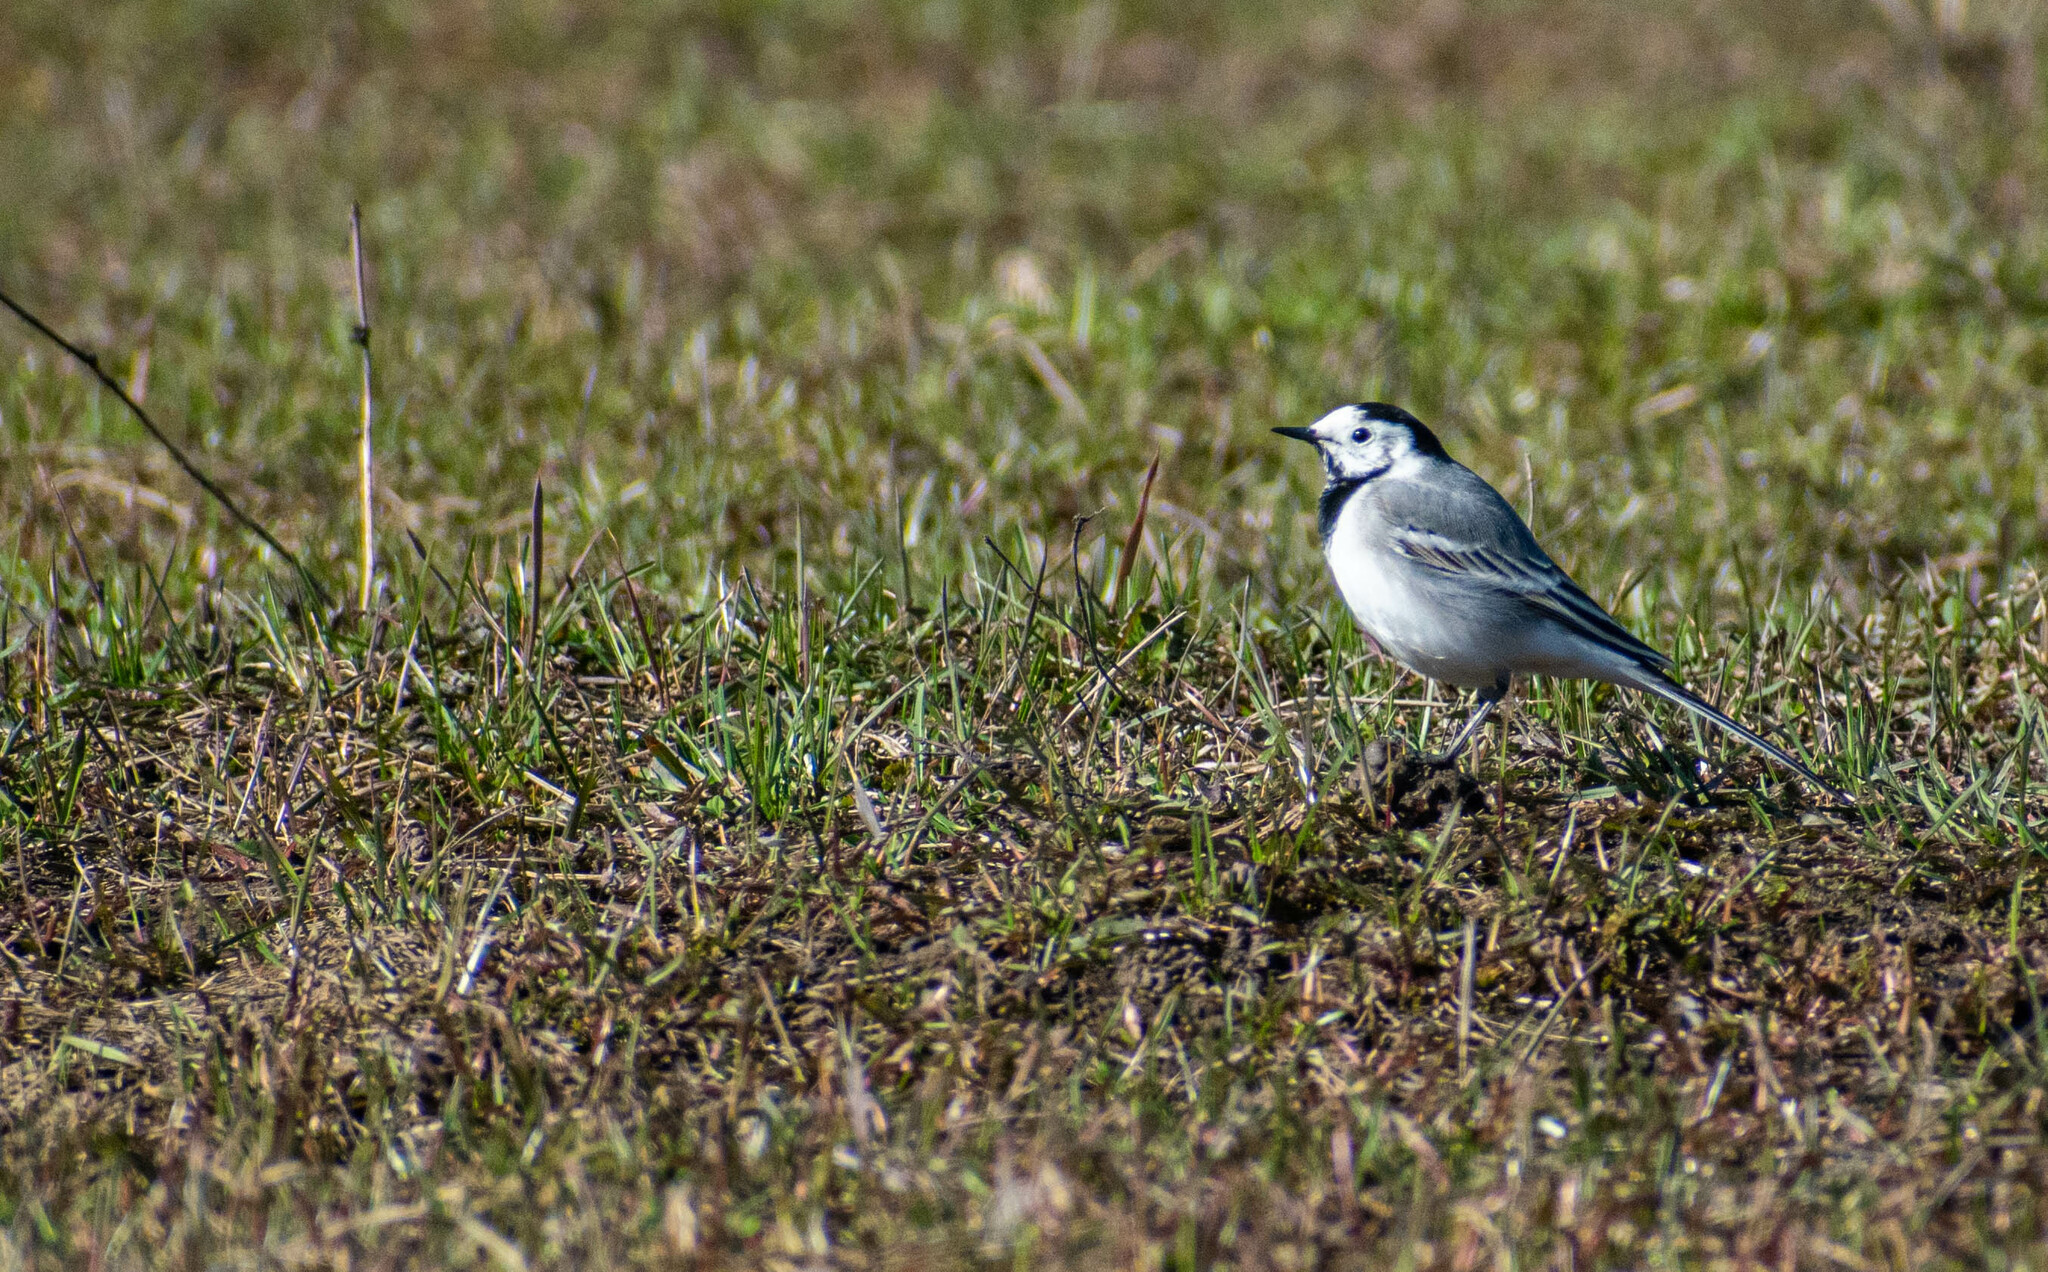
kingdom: Animalia
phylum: Chordata
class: Aves
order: Passeriformes
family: Motacillidae
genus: Motacilla
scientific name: Motacilla alba
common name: White wagtail
